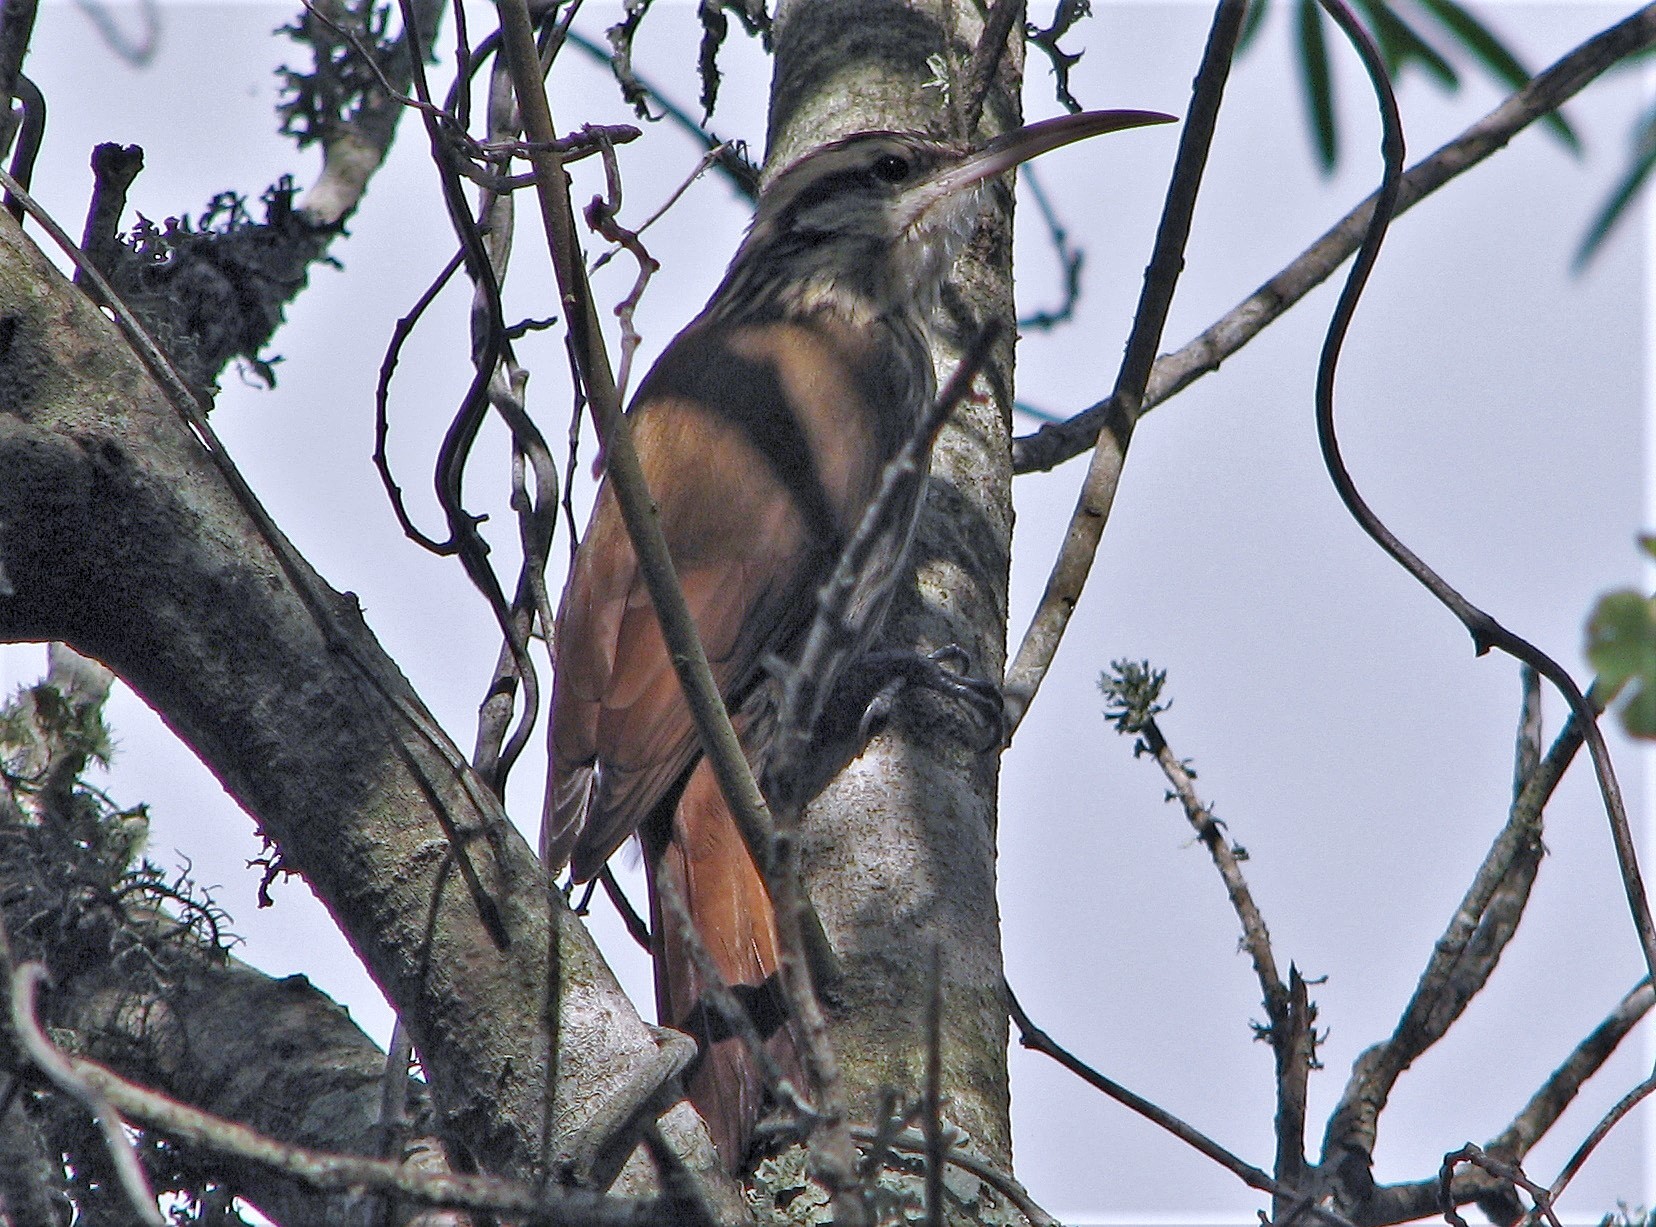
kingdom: Animalia
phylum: Chordata
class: Aves
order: Passeriformes
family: Furnariidae
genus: Lepidocolaptes
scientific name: Lepidocolaptes angustirostris
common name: Narrow-billed woodcreeper
